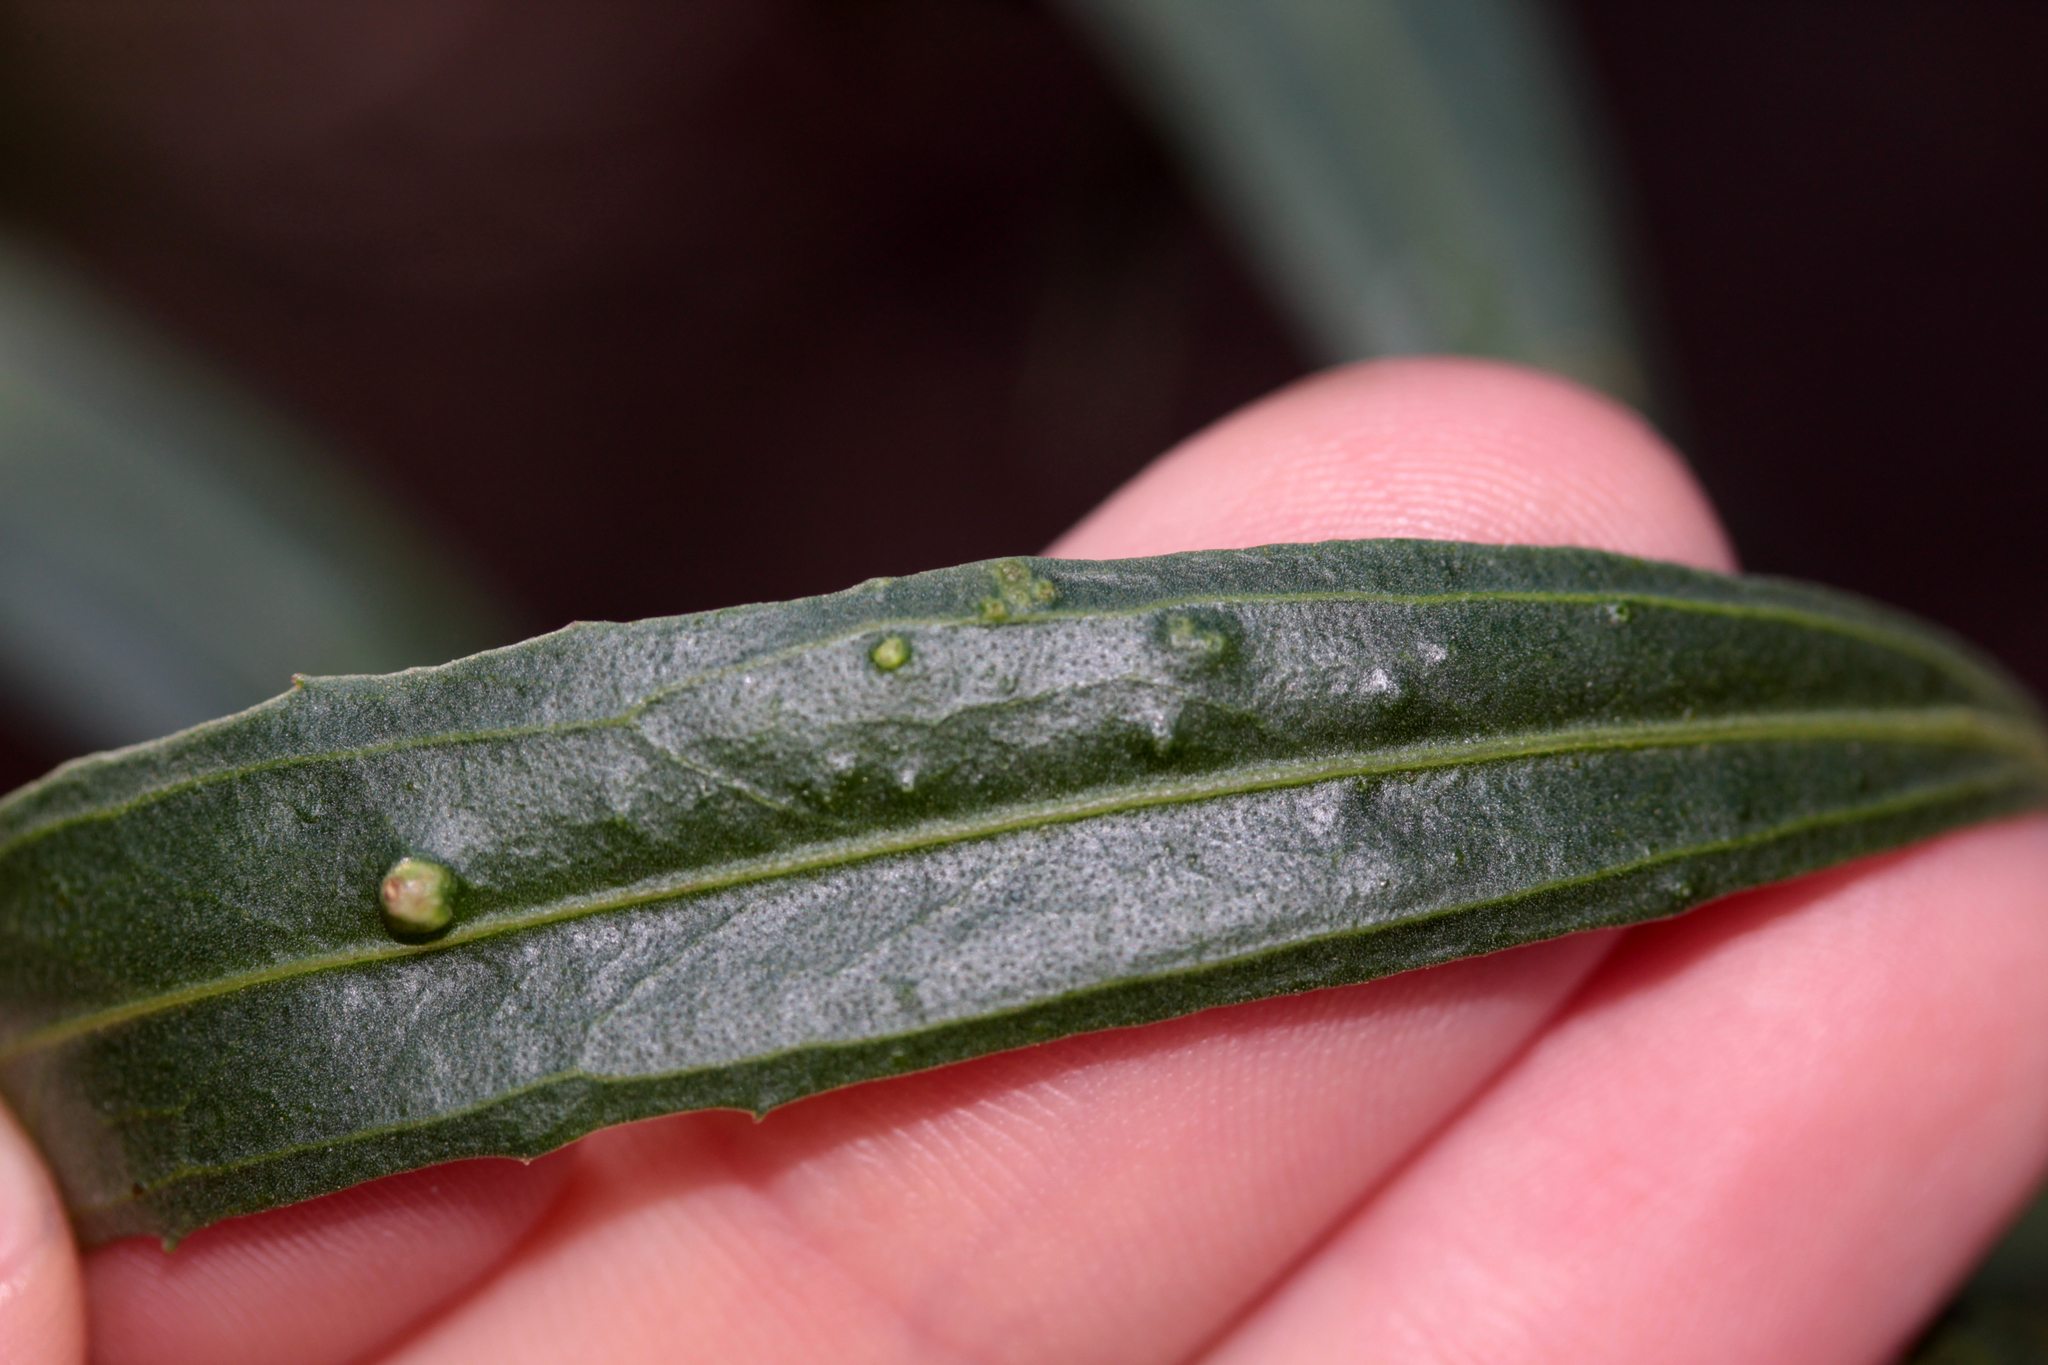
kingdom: Animalia
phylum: Arthropoda
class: Arachnida
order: Trombidiformes
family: Eriophyidae
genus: Aceria
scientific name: Aceria
